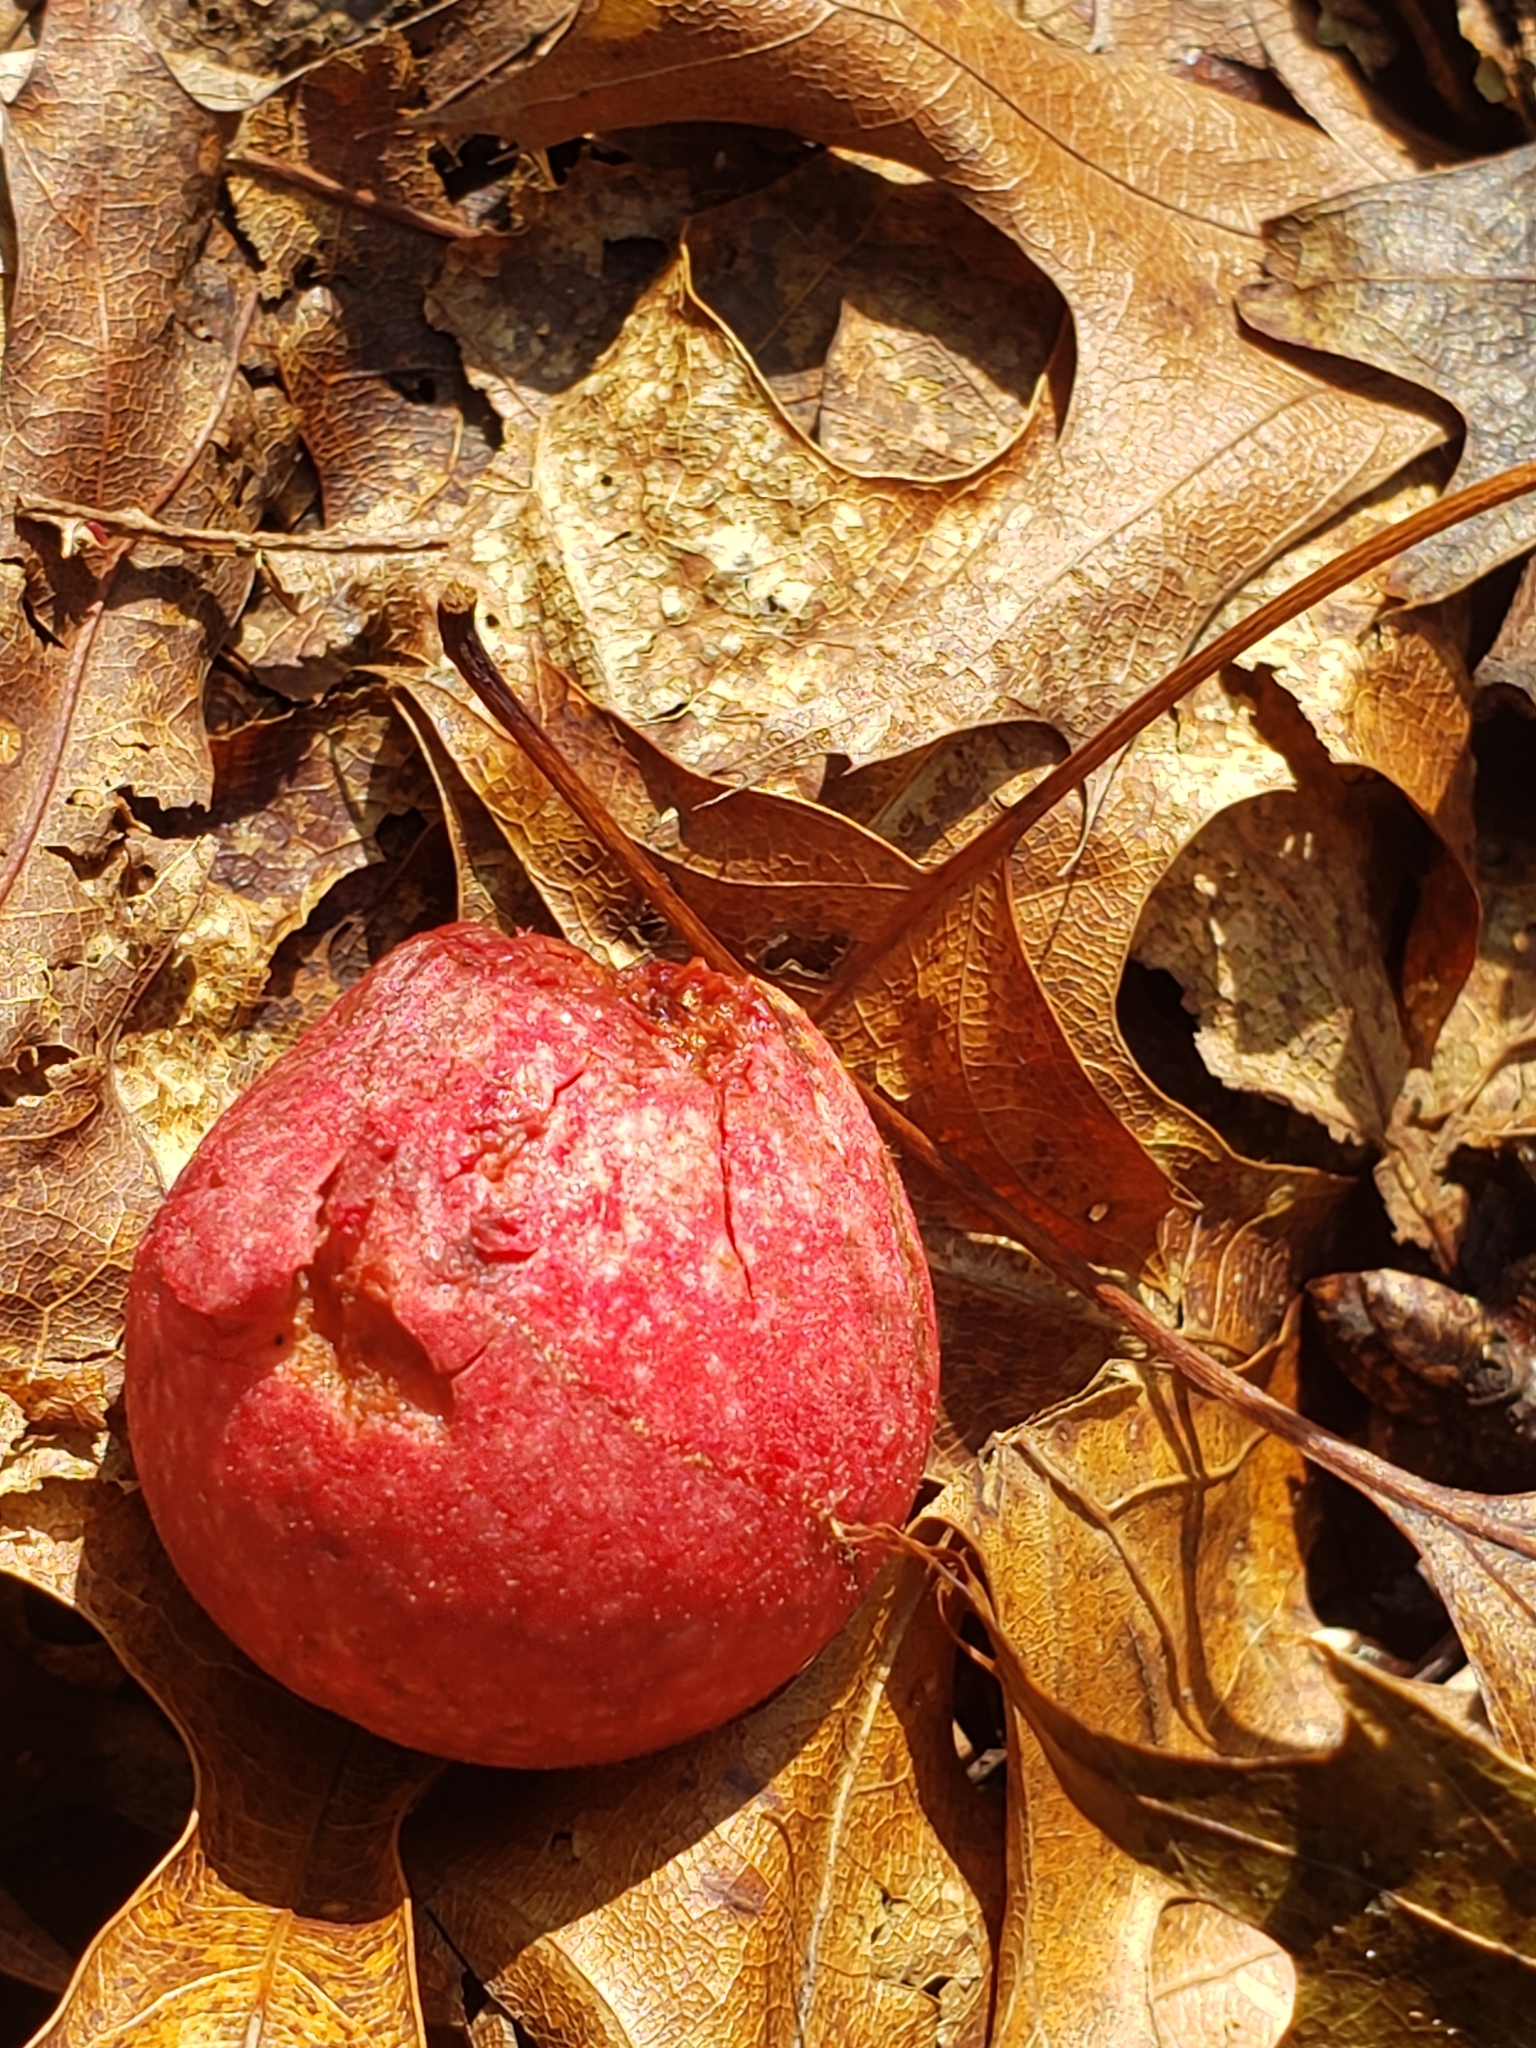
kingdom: Animalia
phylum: Arthropoda
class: Insecta
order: Hymenoptera
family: Cynipidae
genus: Amphibolips
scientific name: Amphibolips
